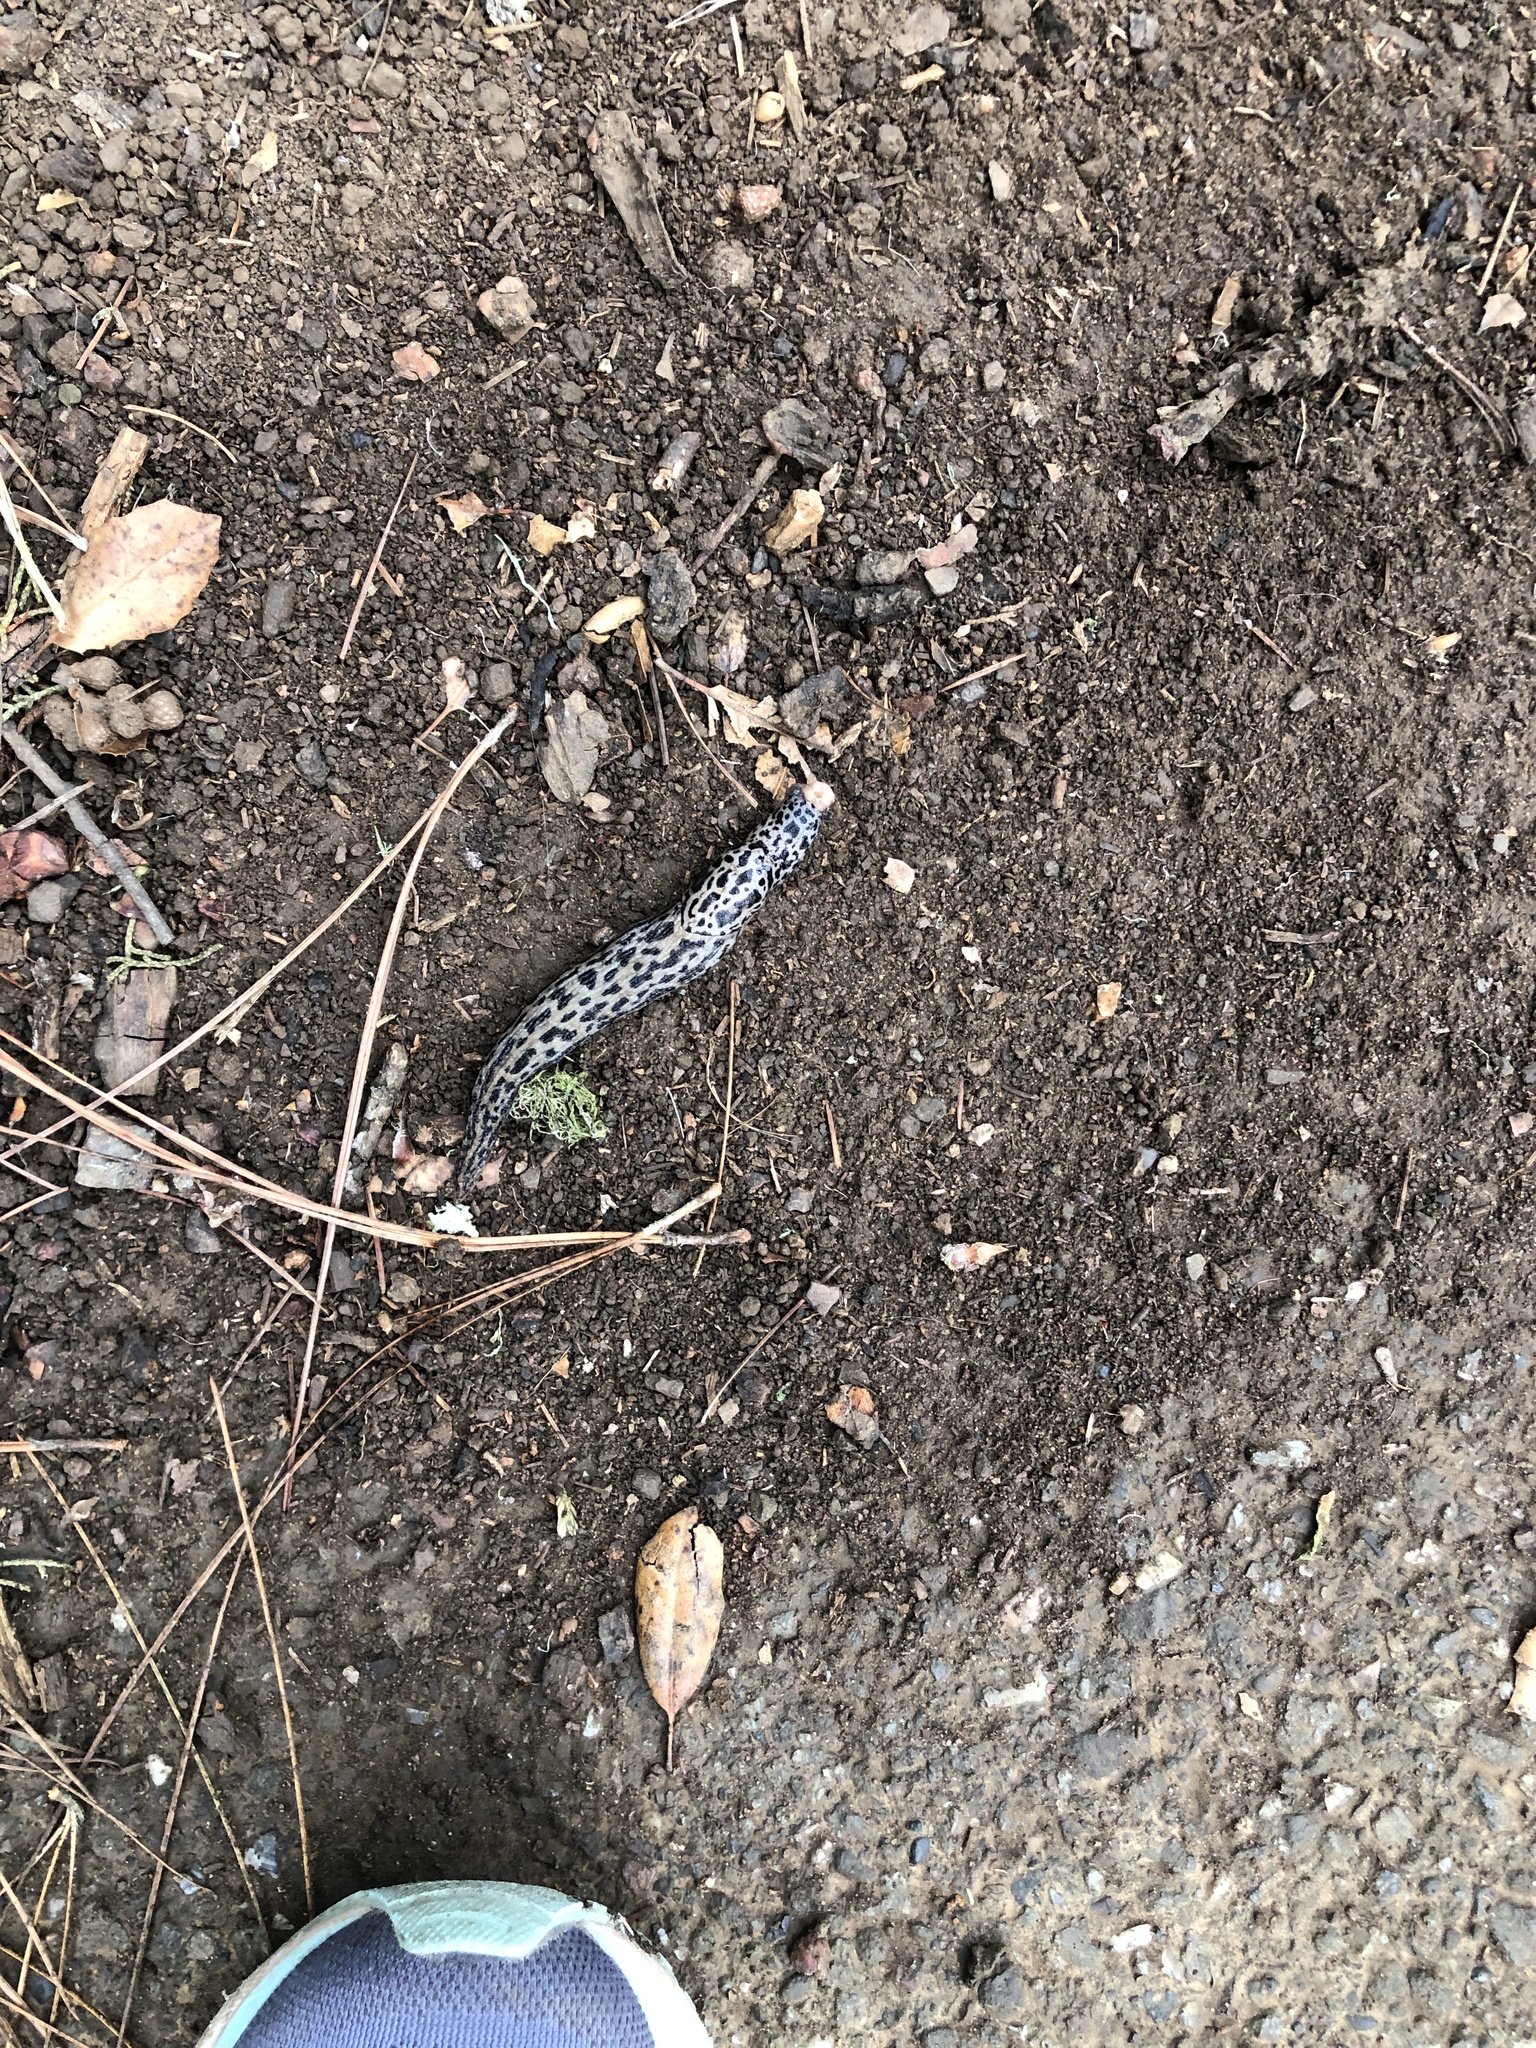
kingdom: Animalia
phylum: Mollusca
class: Gastropoda
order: Stylommatophora
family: Limacidae
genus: Limax
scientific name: Limax maximus
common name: Great grey slug
